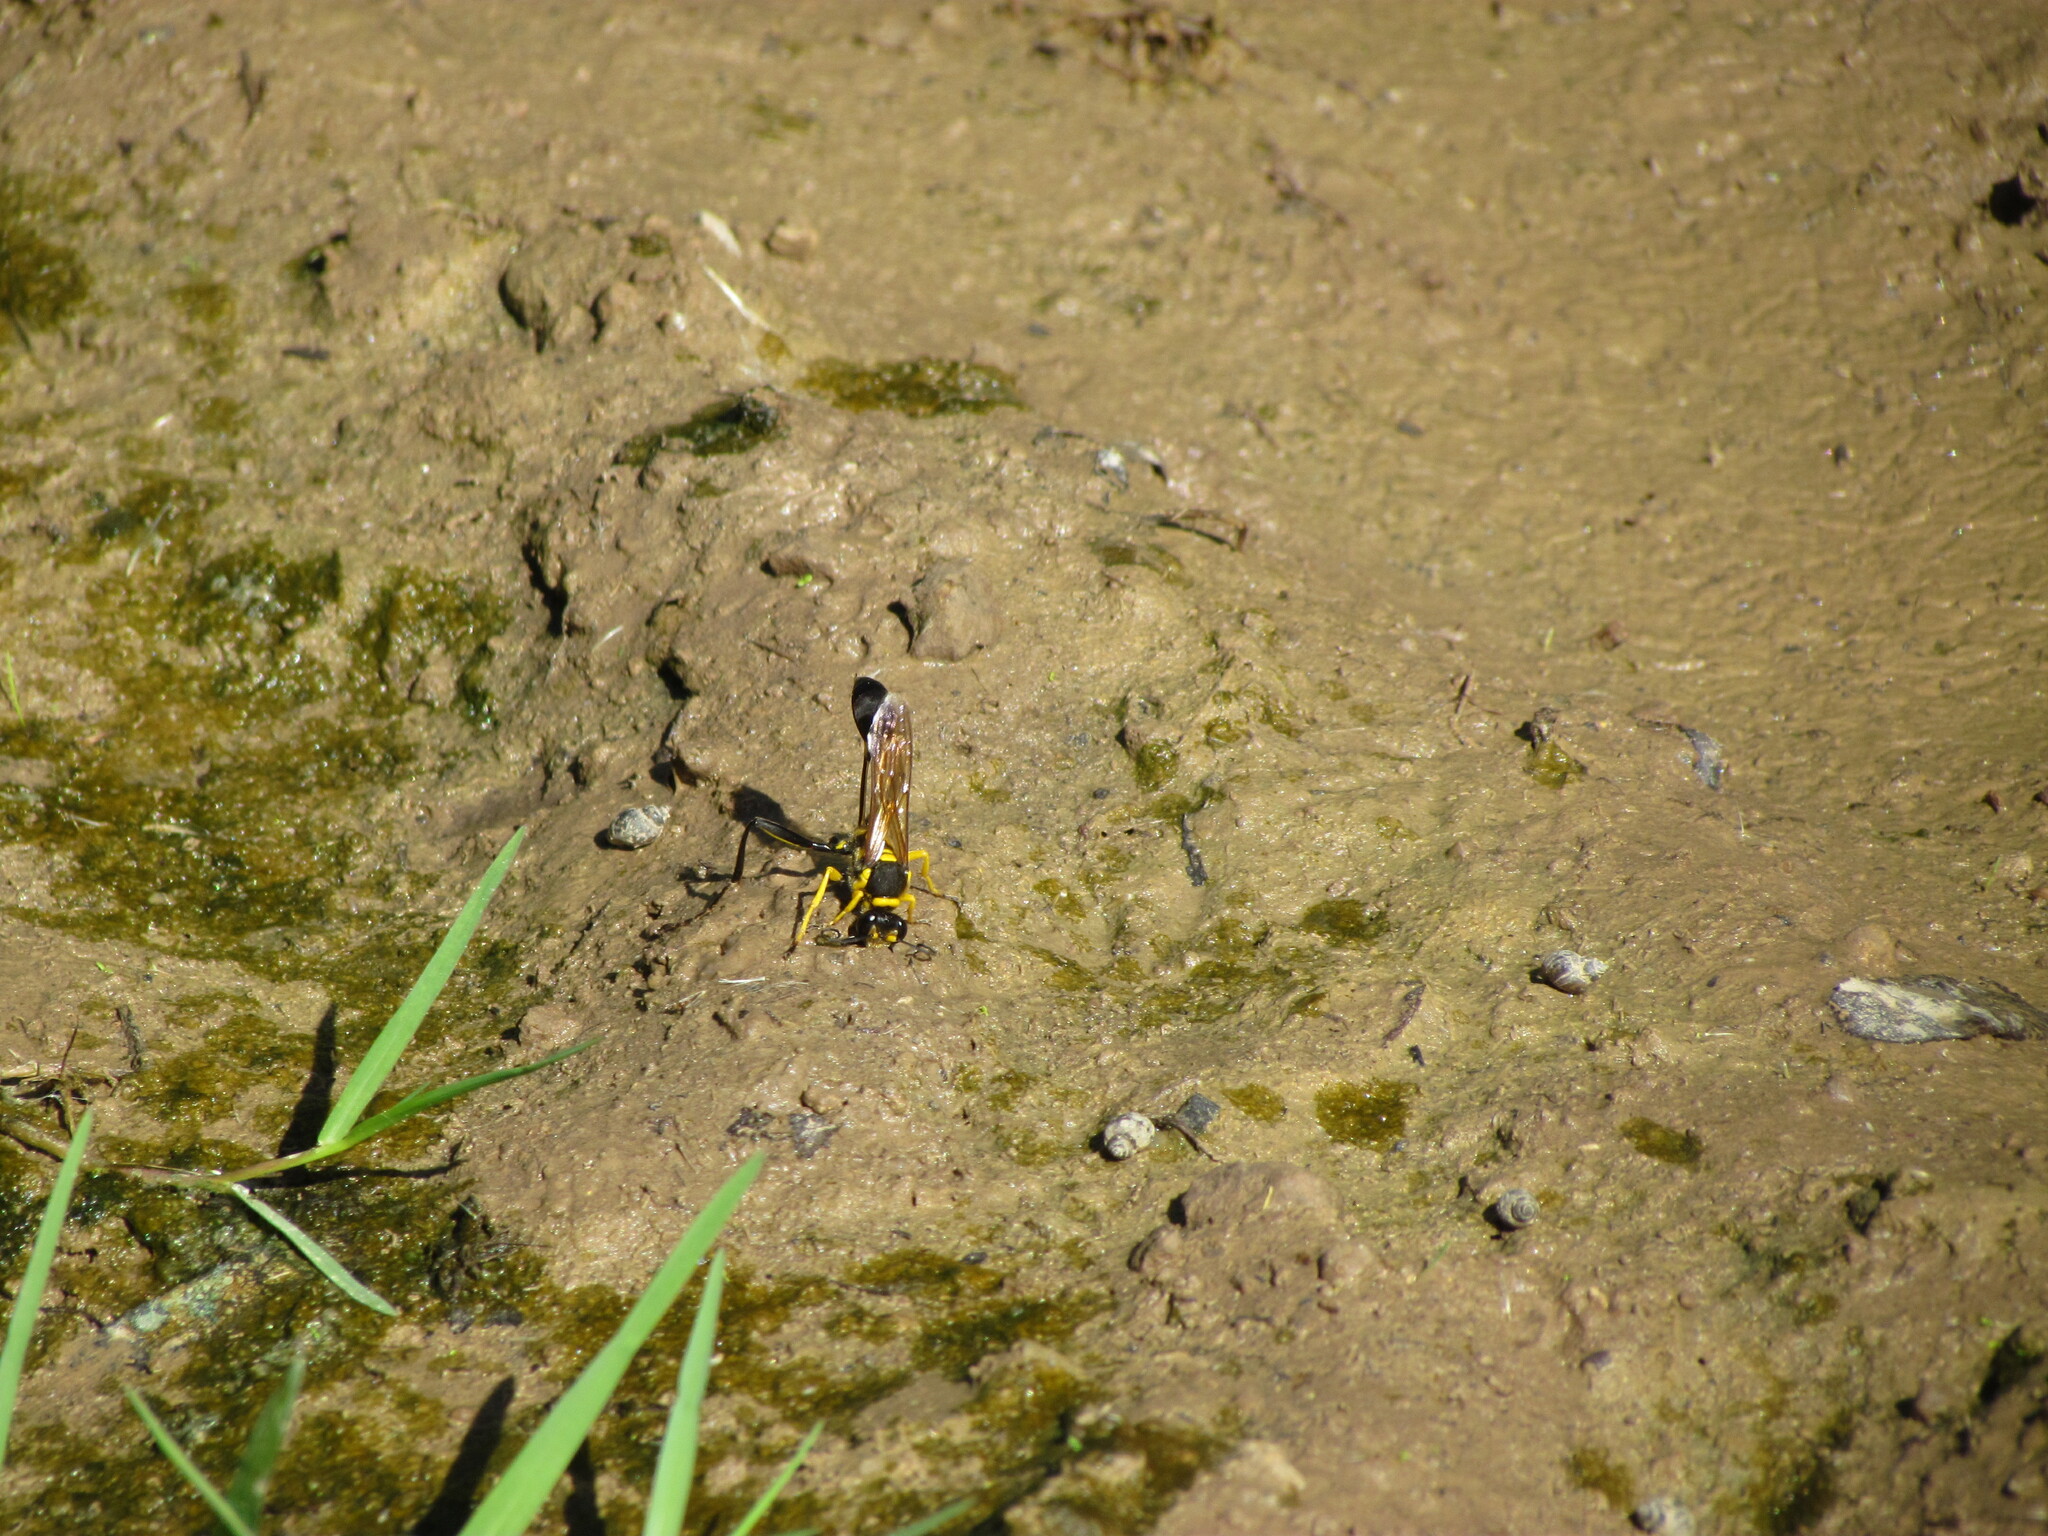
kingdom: Animalia
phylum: Arthropoda
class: Insecta
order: Hymenoptera
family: Sphecidae
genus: Sceliphron
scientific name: Sceliphron fistularium
